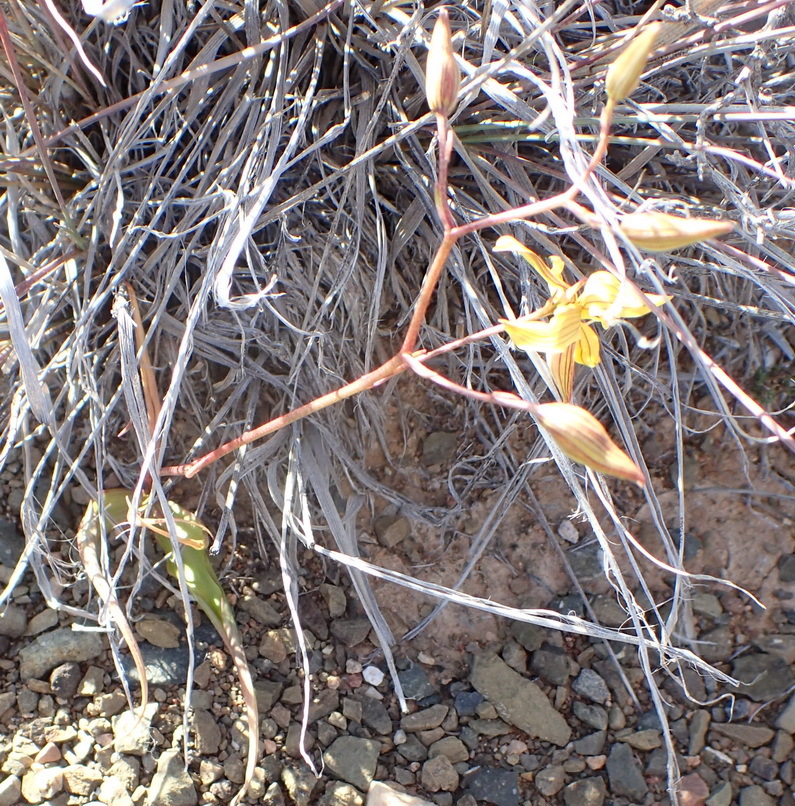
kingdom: Plantae
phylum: Tracheophyta
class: Liliopsida
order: Asparagales
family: Tecophilaeaceae
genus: Cyanella
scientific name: Cyanella lutea
